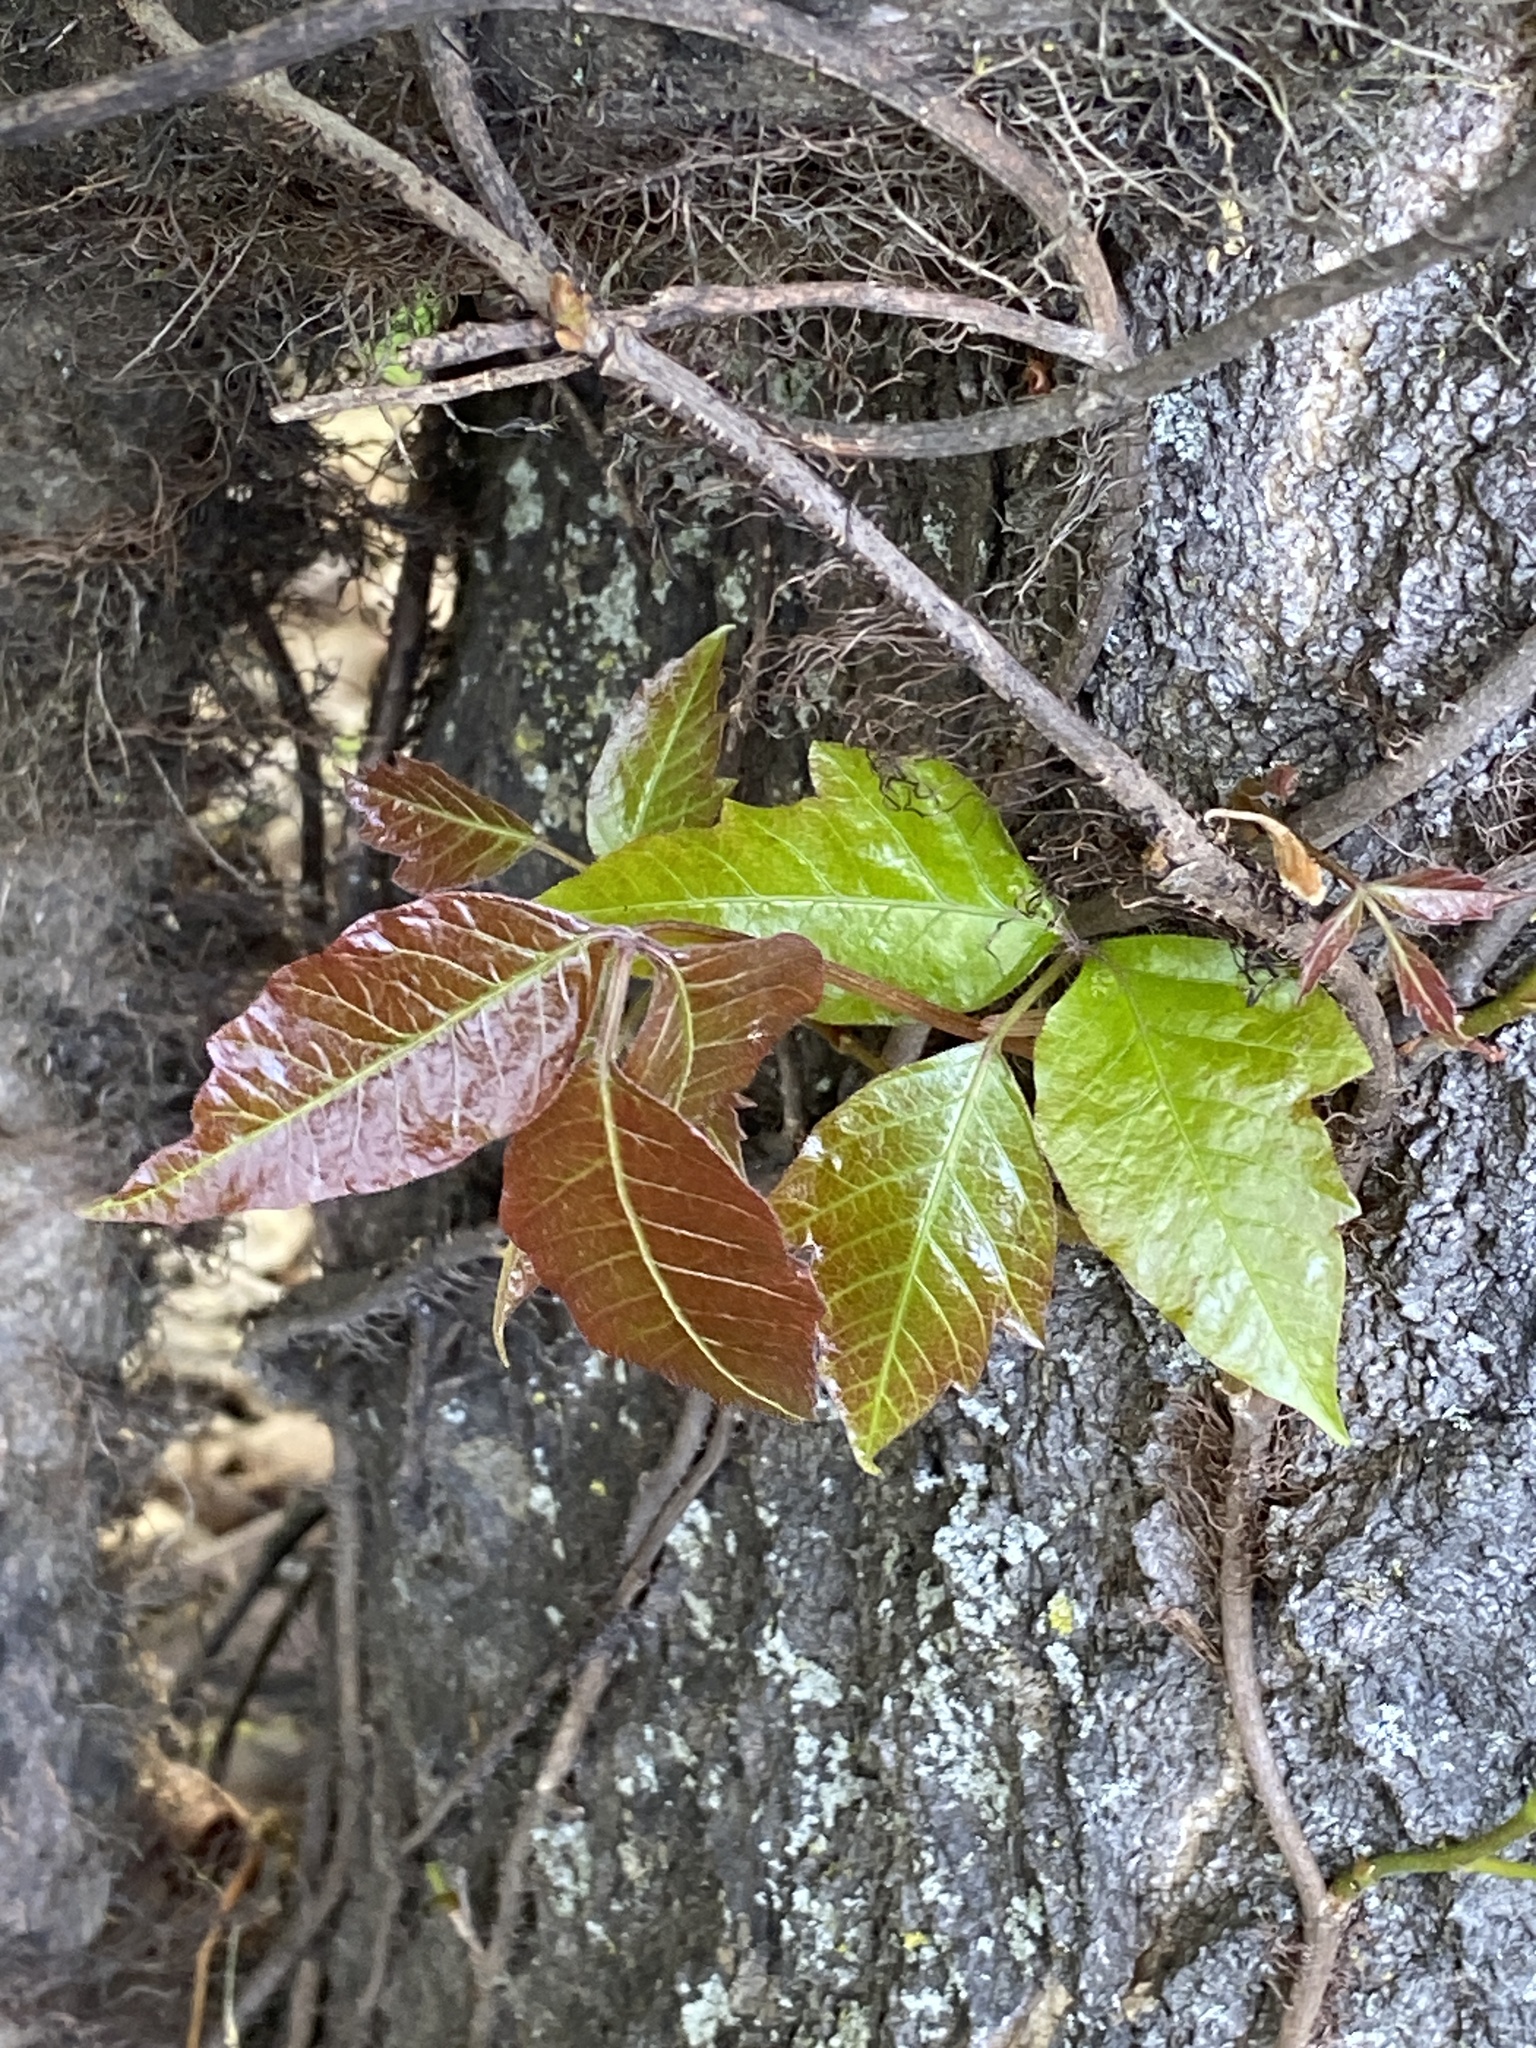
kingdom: Plantae
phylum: Tracheophyta
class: Magnoliopsida
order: Sapindales
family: Anacardiaceae
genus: Toxicodendron
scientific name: Toxicodendron radicans
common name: Poison ivy
